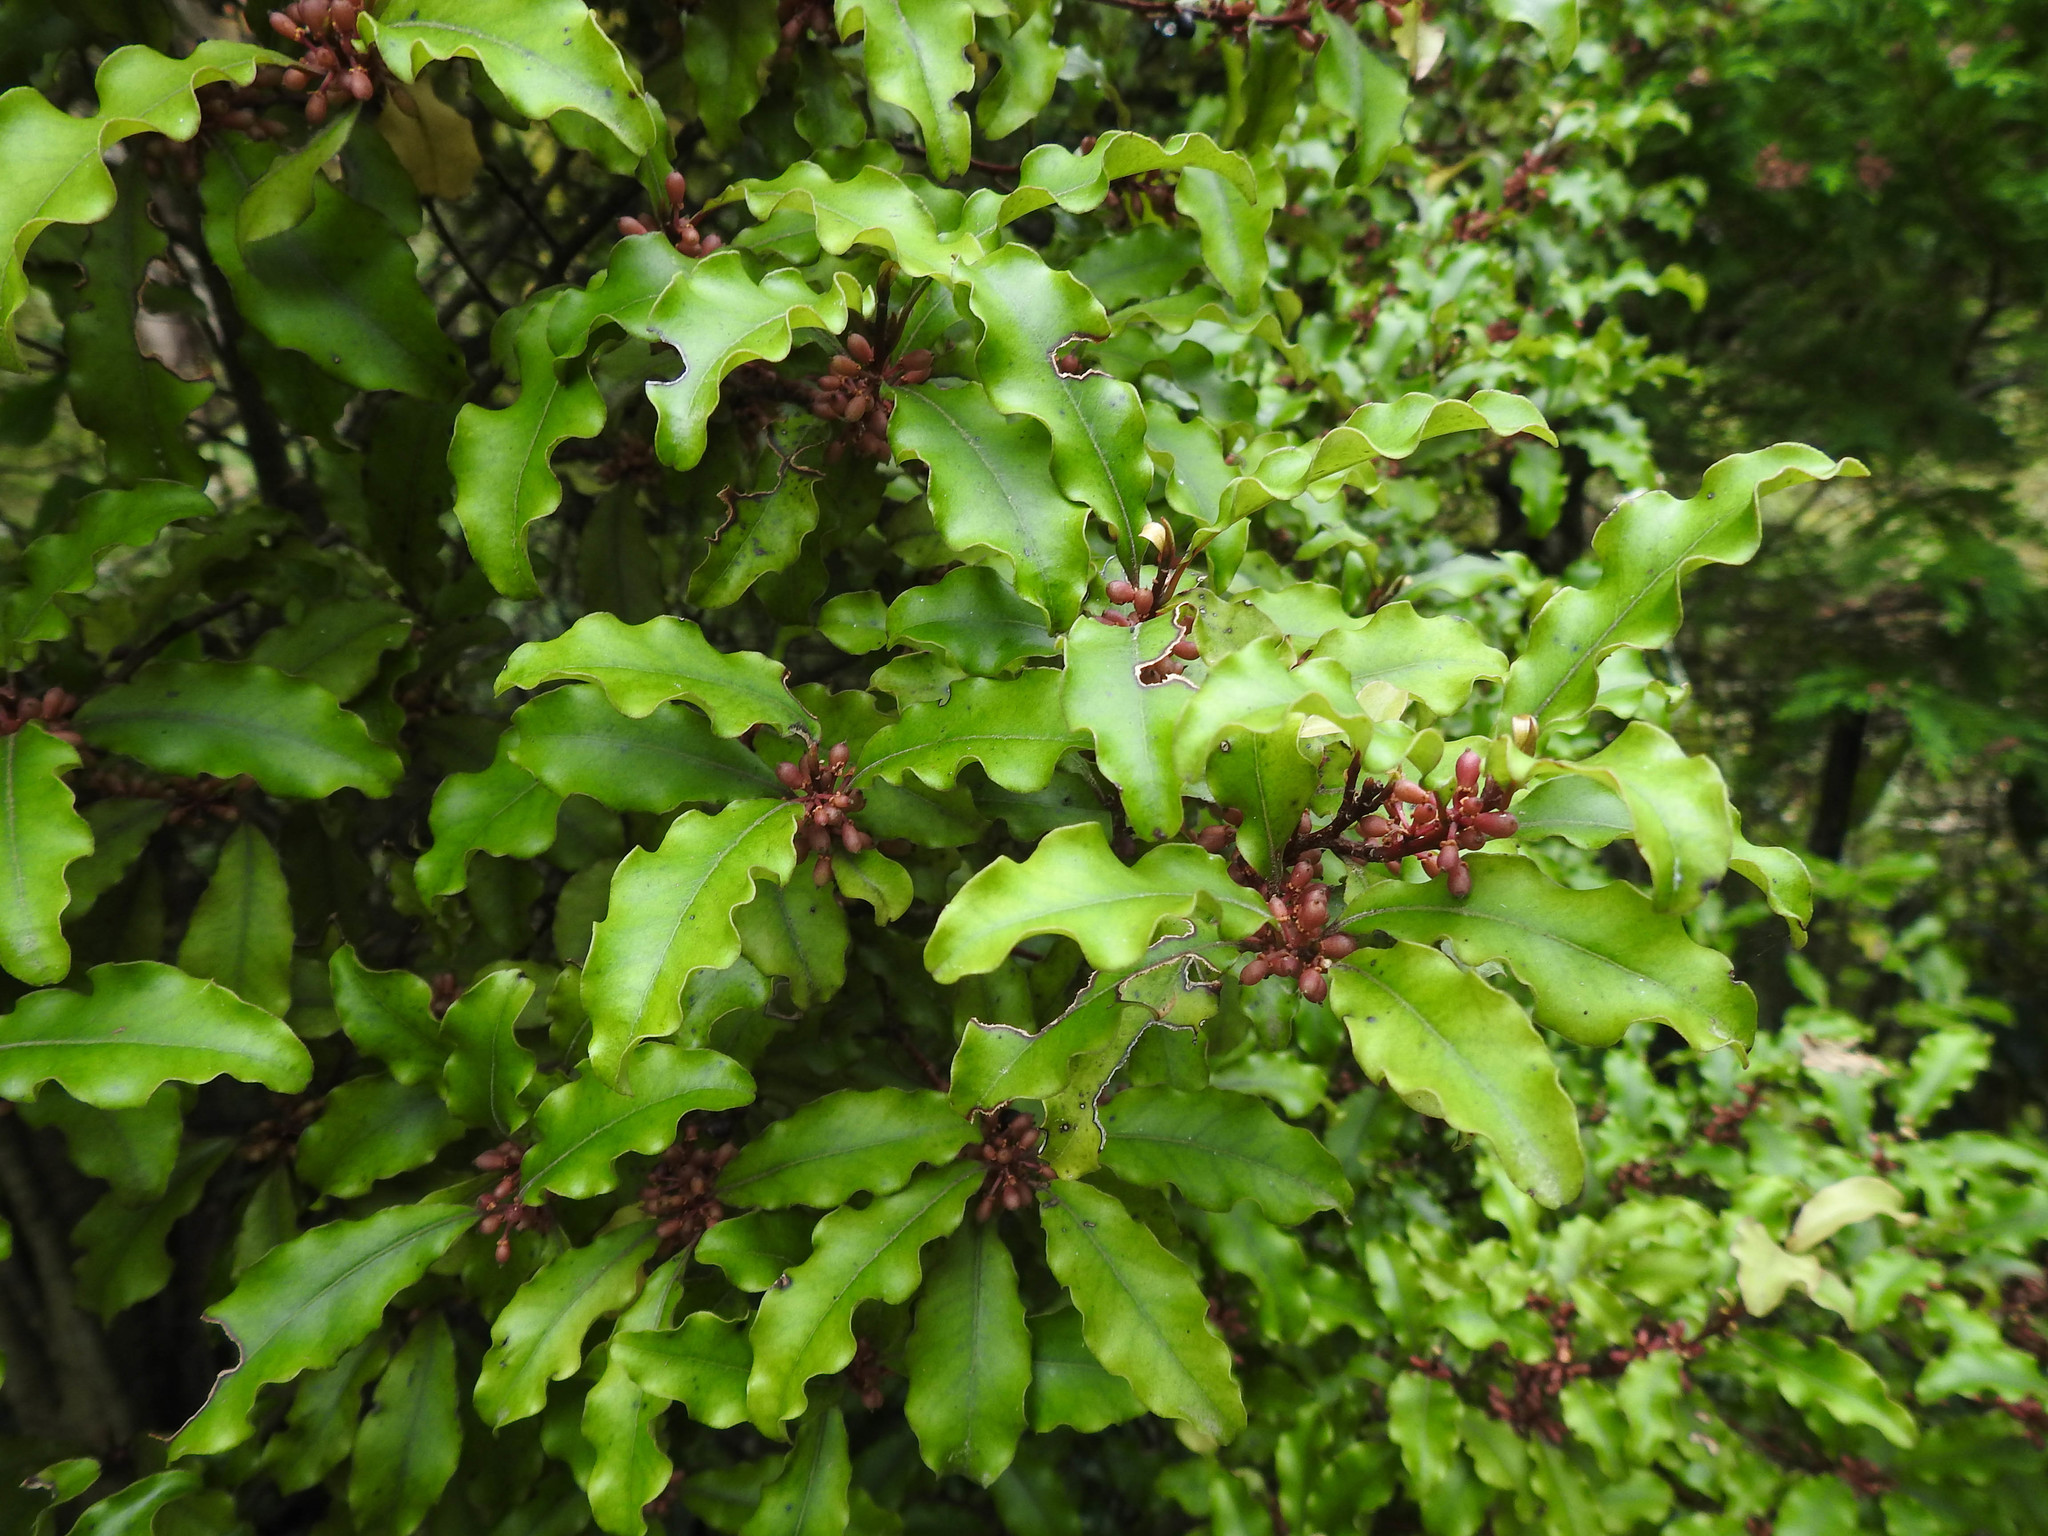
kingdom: Plantae
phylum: Tracheophyta
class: Magnoliopsida
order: Ericales
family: Primulaceae
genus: Myrsine
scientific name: Myrsine australis
